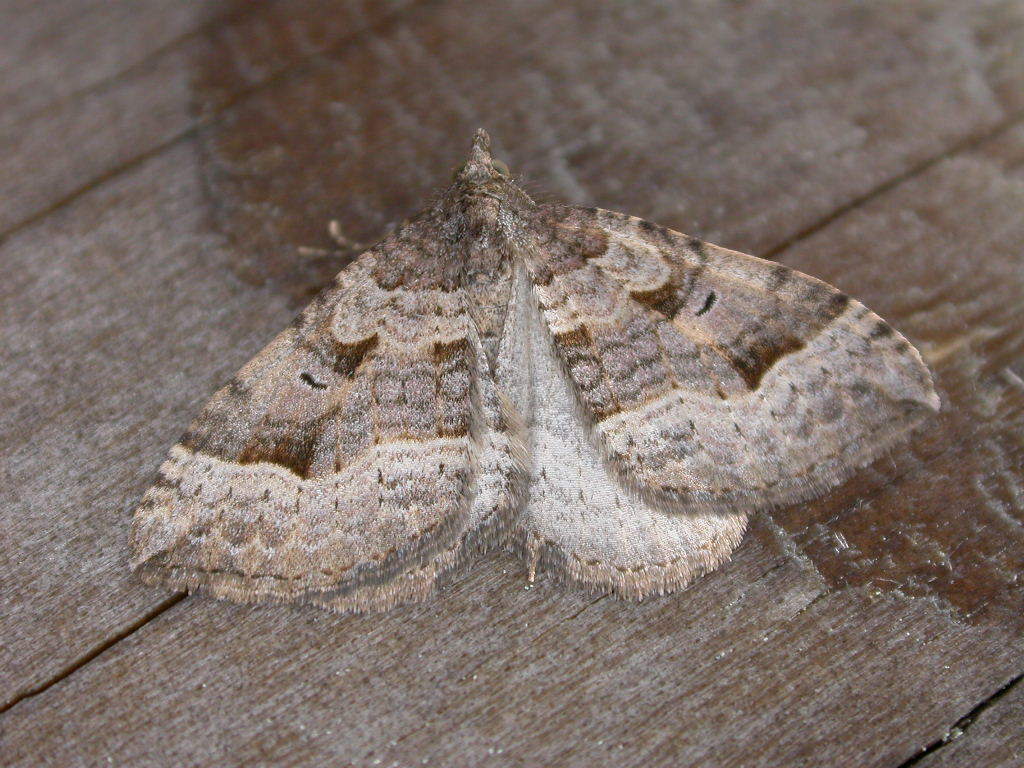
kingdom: Animalia
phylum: Arthropoda
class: Insecta
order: Lepidoptera
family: Geometridae
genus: Epyaxa
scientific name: Epyaxa rosearia
